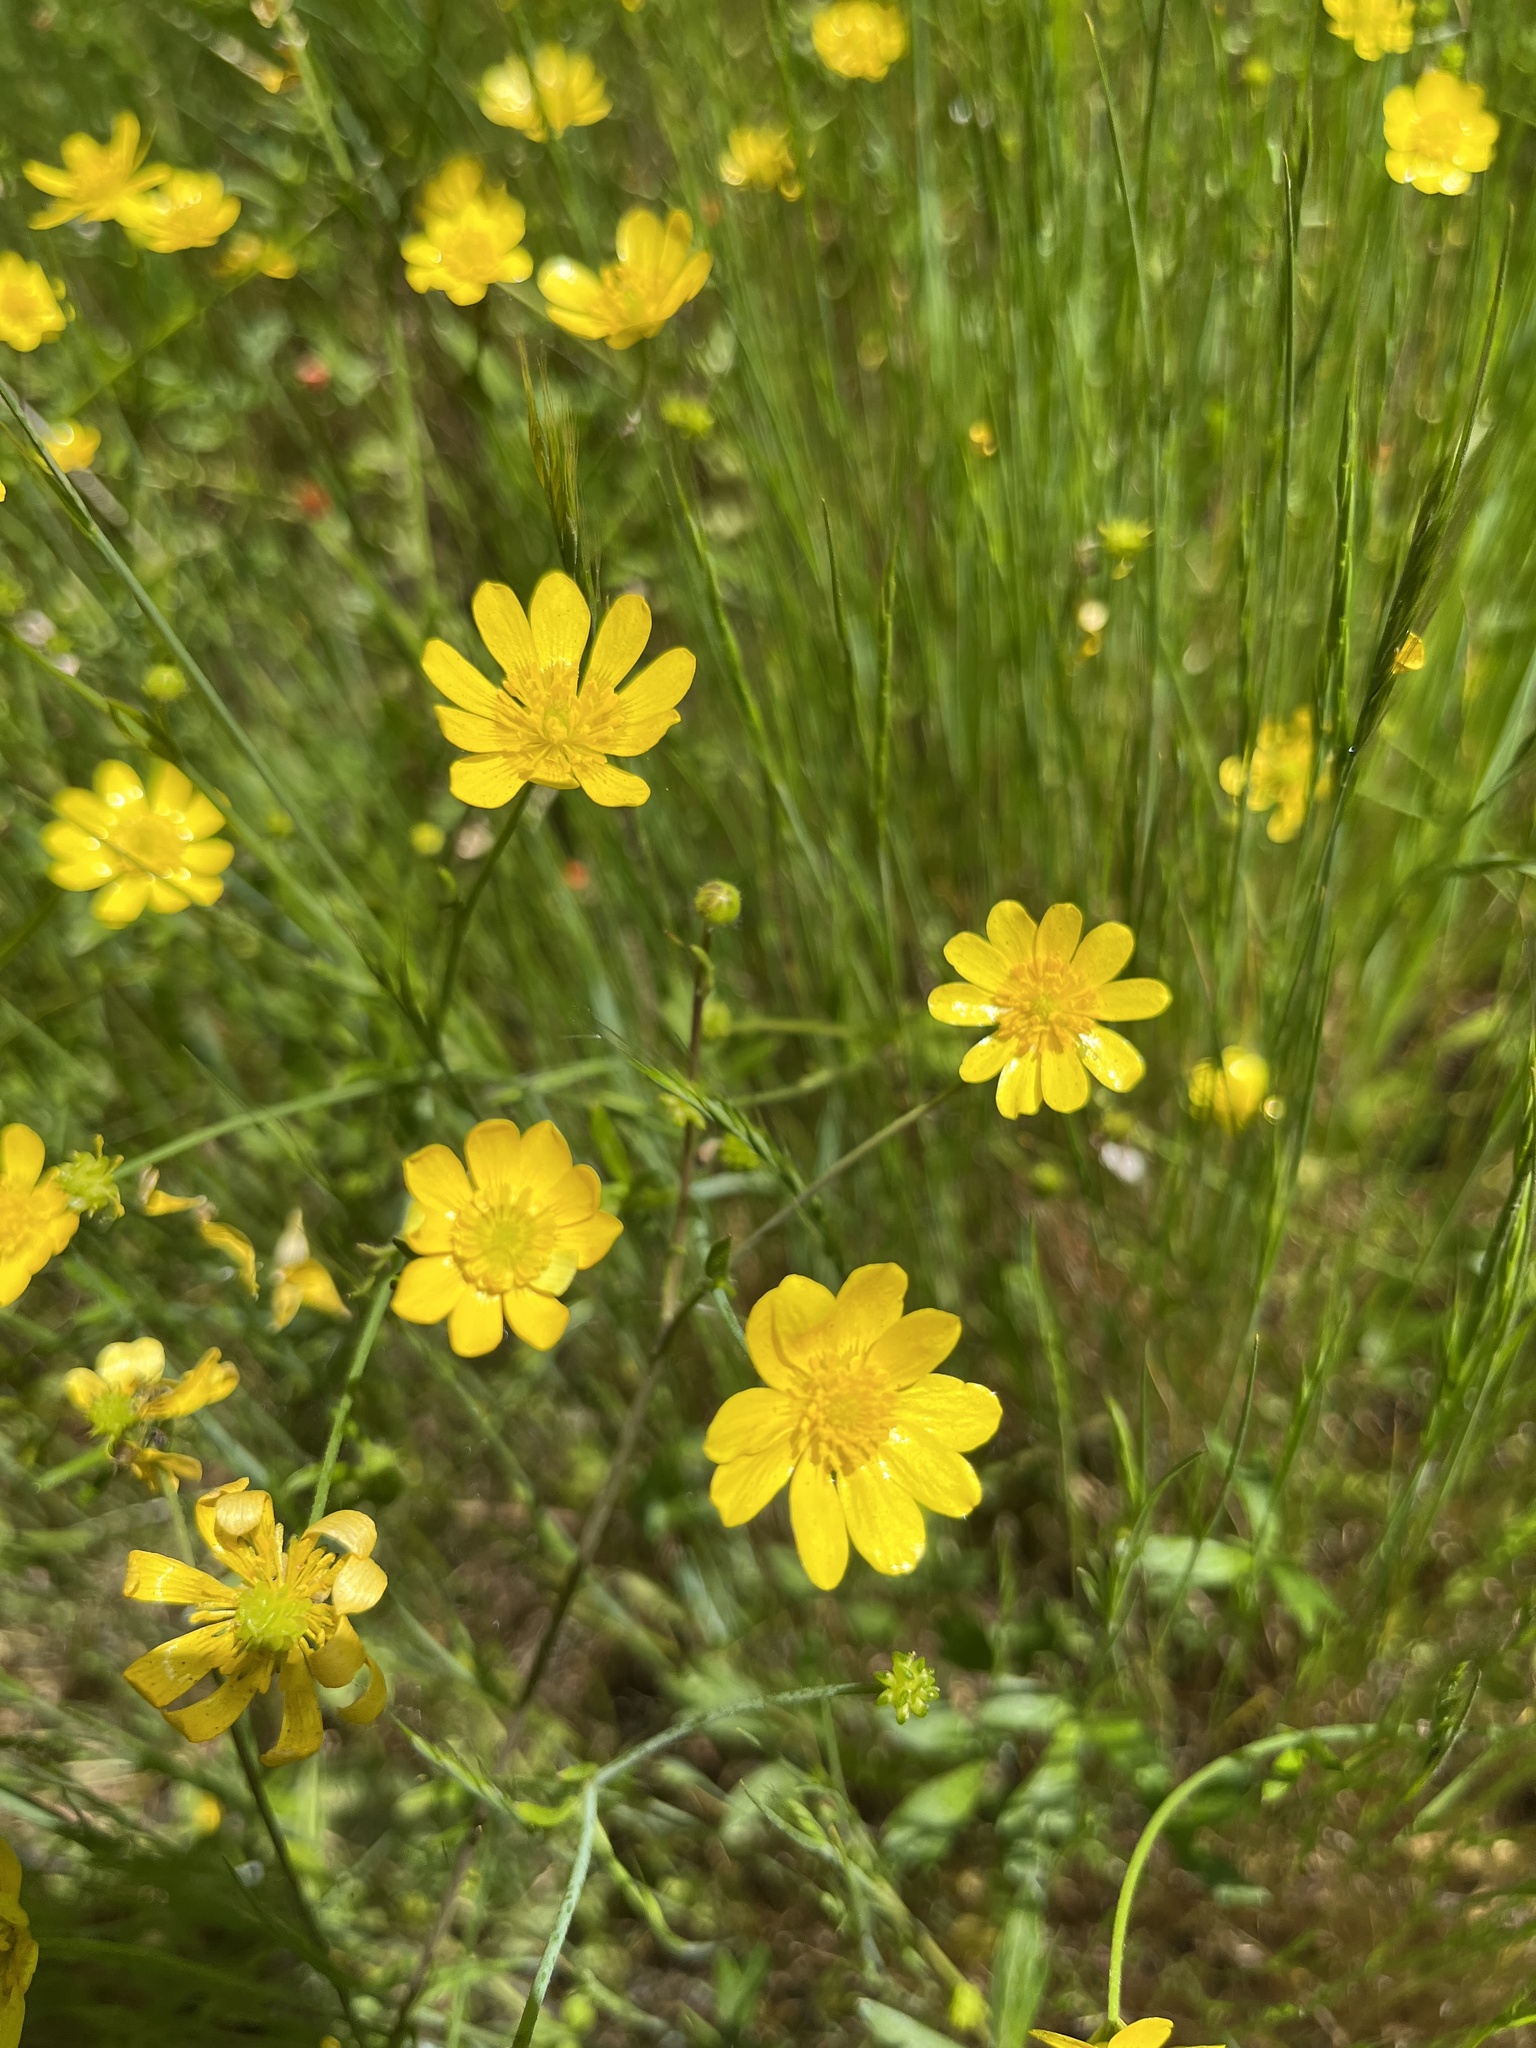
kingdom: Plantae
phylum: Tracheophyta
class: Magnoliopsida
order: Ranunculales
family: Ranunculaceae
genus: Ranunculus
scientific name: Ranunculus californicus
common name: California buttercup
